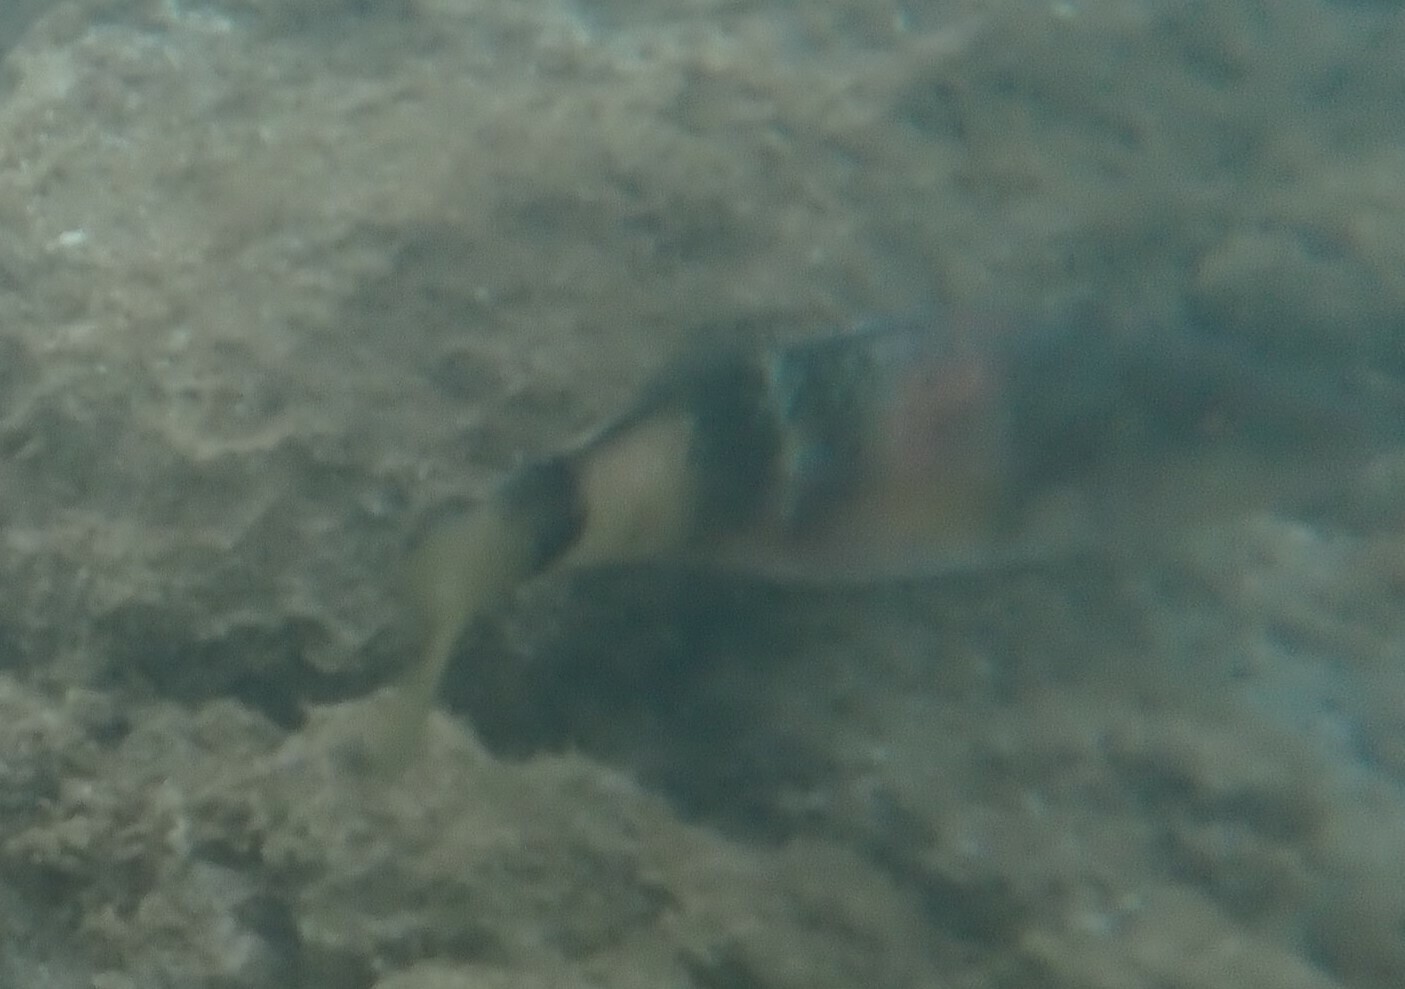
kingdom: Animalia
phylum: Chordata
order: Perciformes
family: Mullidae
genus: Parupeneus
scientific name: Parupeneus multifasciatus
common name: Manybar goatfish
